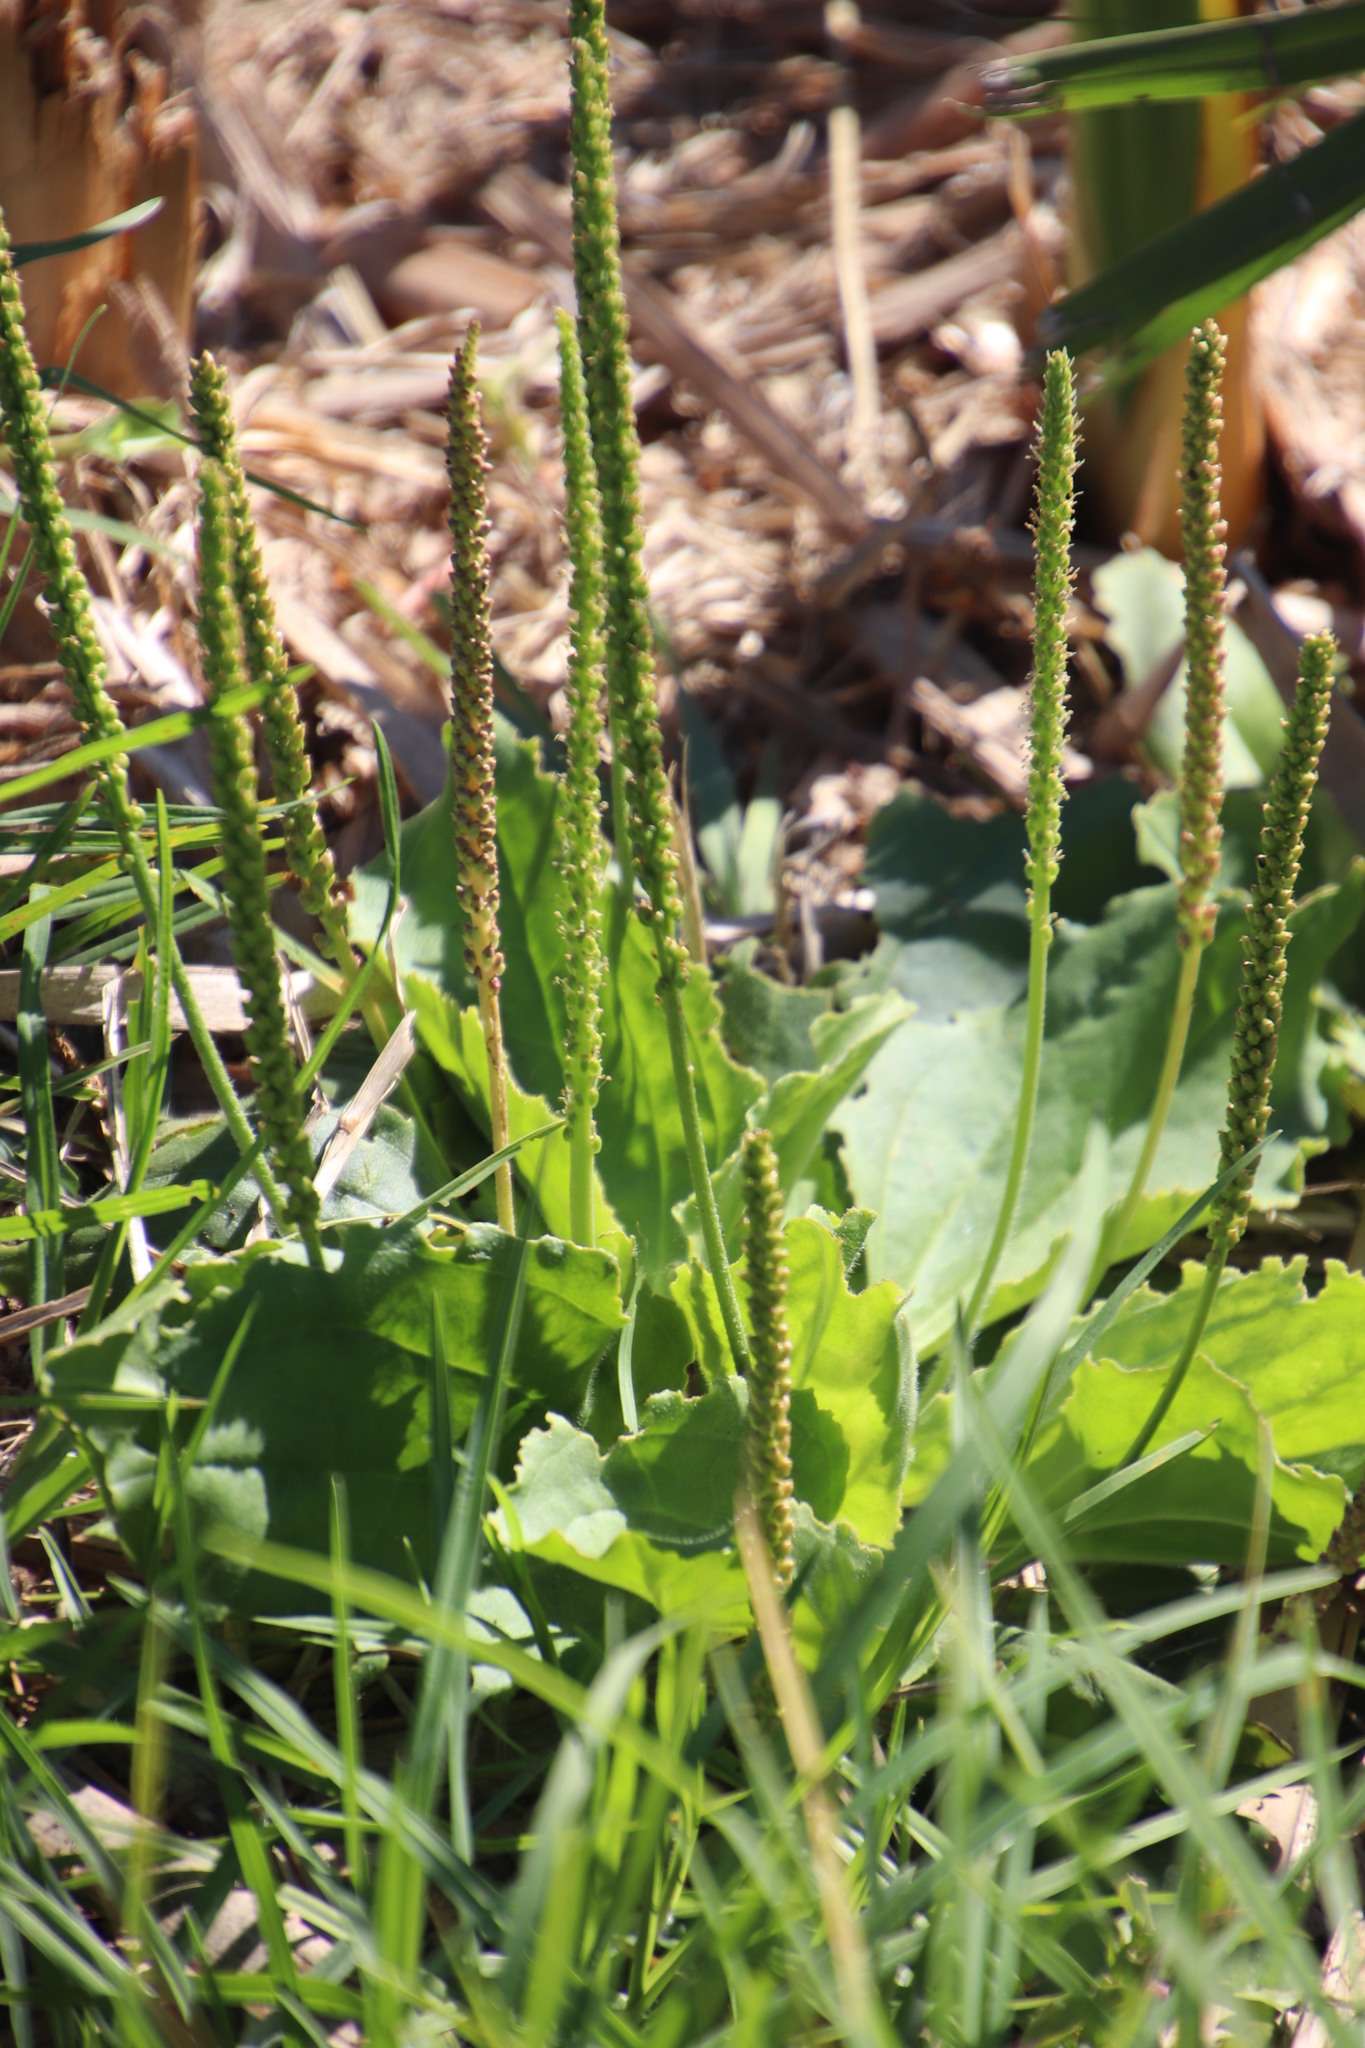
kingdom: Plantae
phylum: Tracheophyta
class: Magnoliopsida
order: Lamiales
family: Plantaginaceae
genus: Plantago
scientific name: Plantago major
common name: Common plantain
